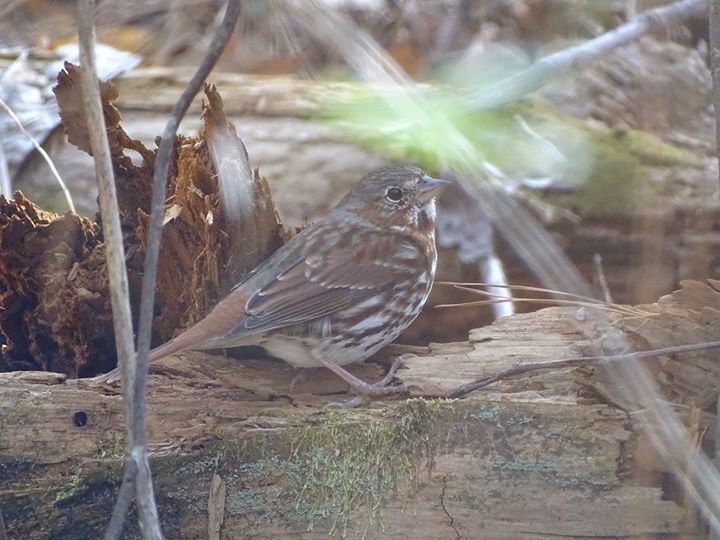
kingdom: Animalia
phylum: Chordata
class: Aves
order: Passeriformes
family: Passerellidae
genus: Passerella
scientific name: Passerella iliaca
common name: Fox sparrow
